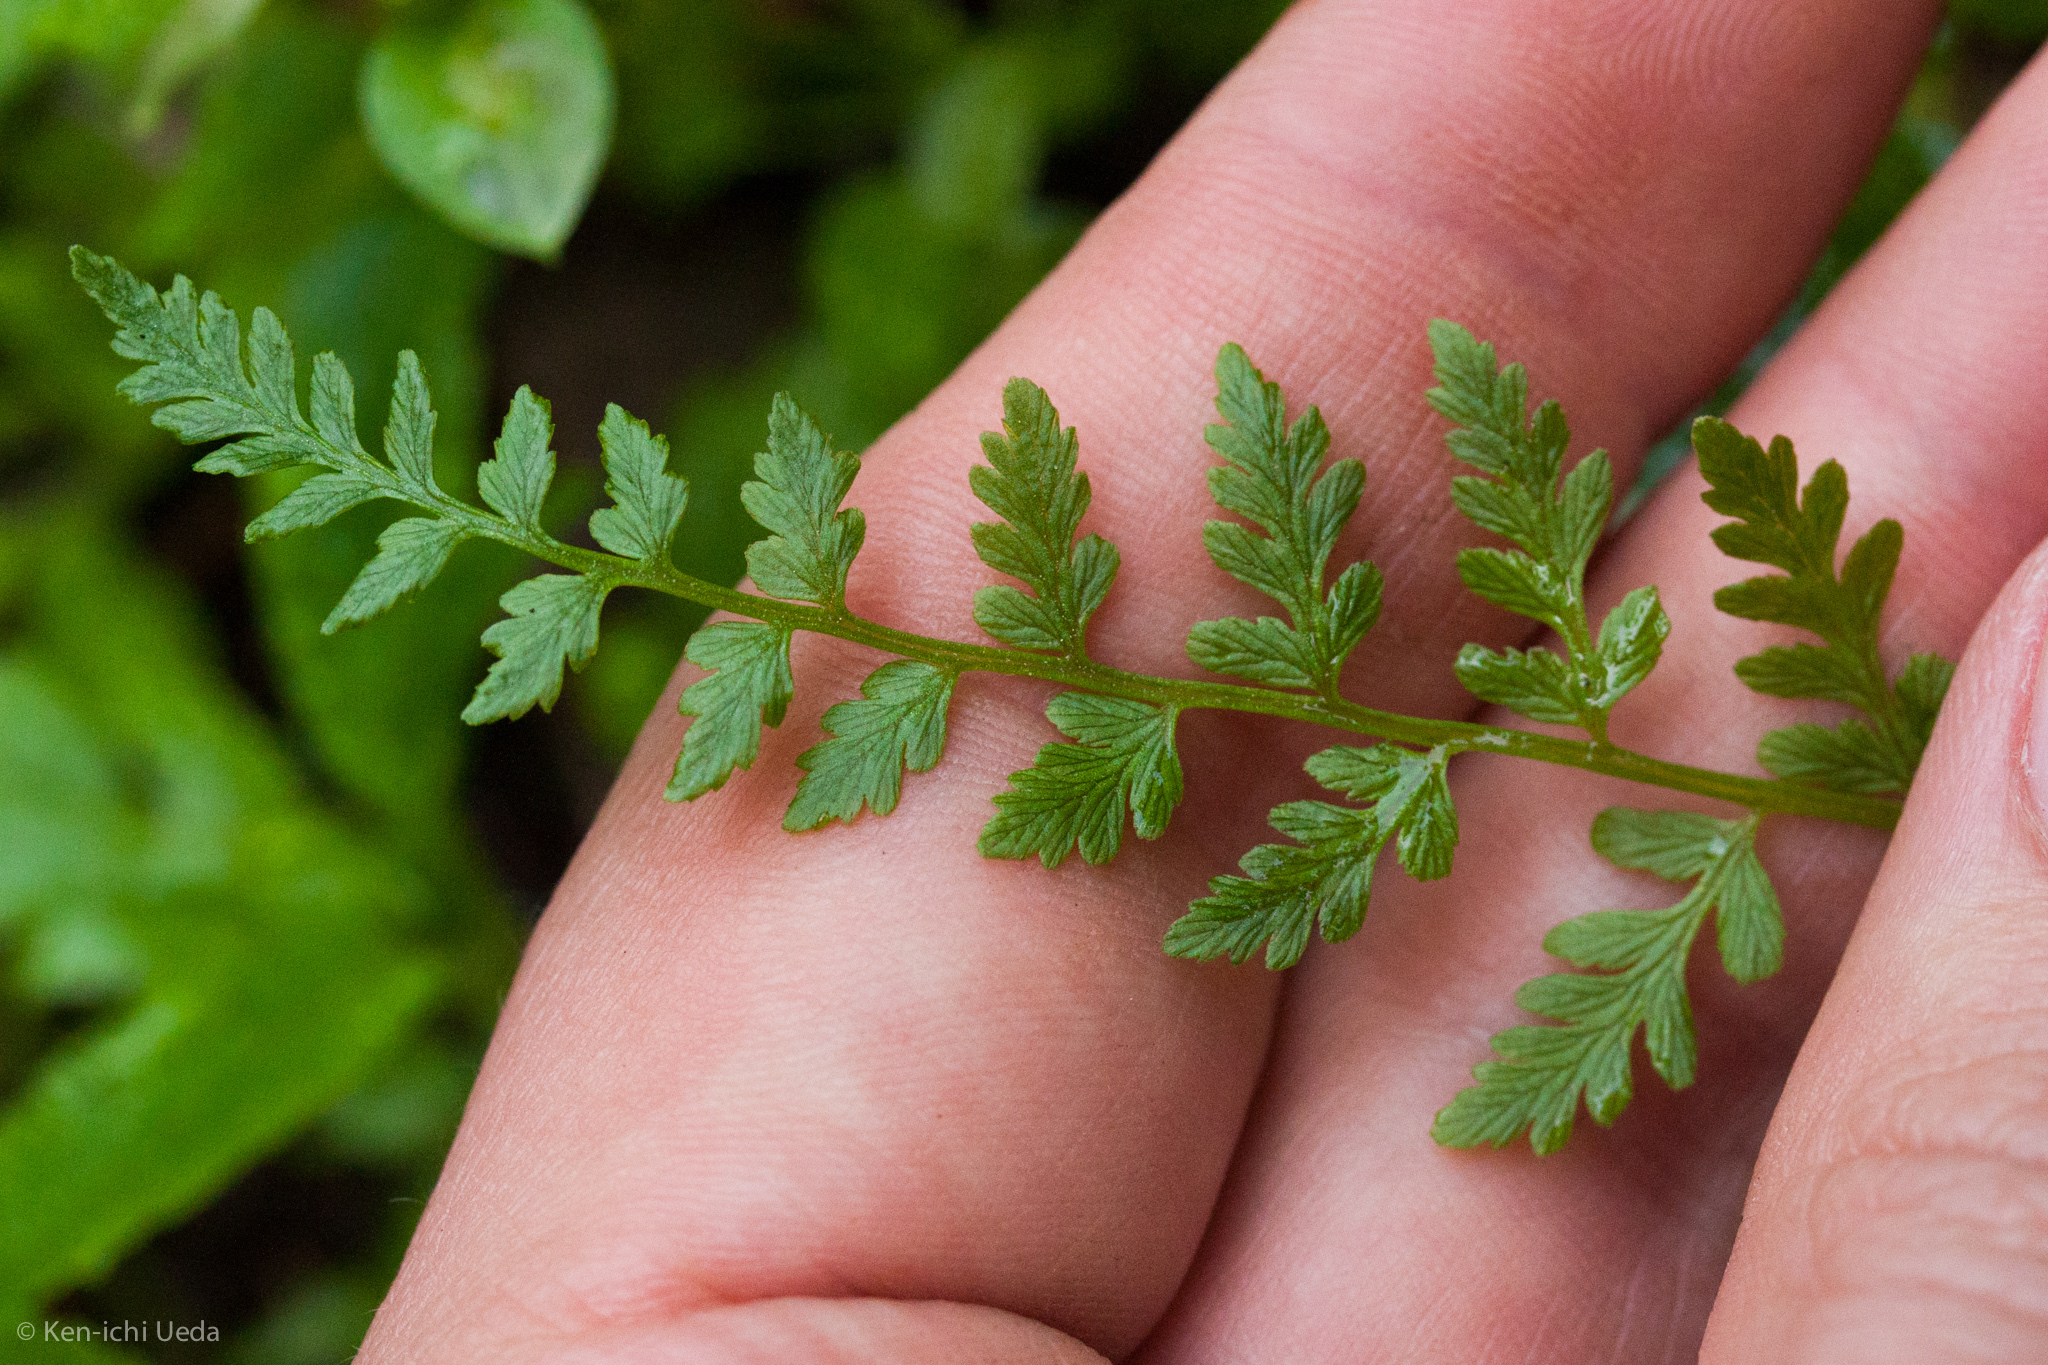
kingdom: Plantae
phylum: Tracheophyta
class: Polypodiopsida
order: Polypodiales
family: Cystopteridaceae
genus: Cystopteris
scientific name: Cystopteris fragilis
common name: Brittle bladder fern
